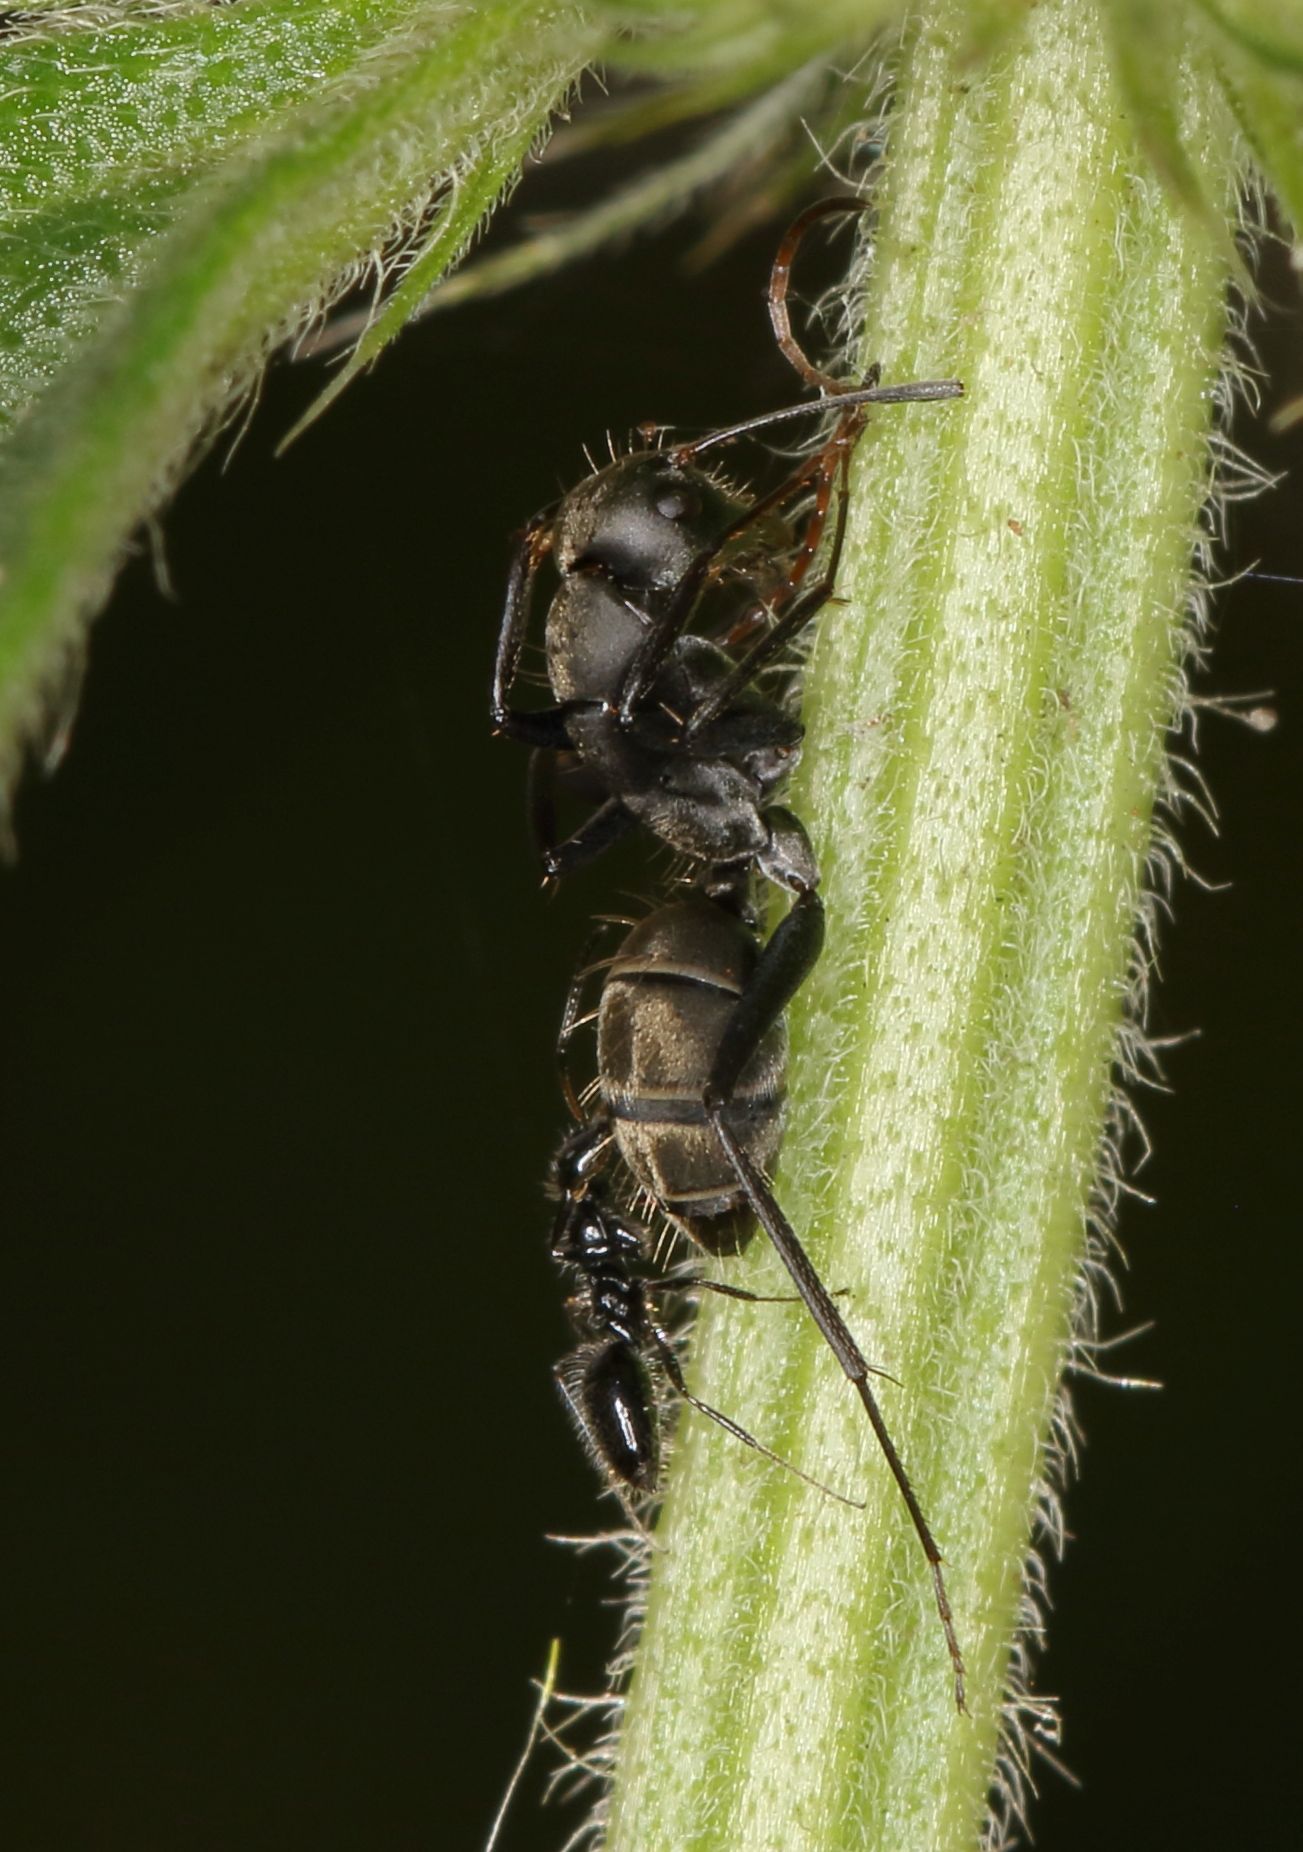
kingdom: Animalia
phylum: Arthropoda
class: Insecta
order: Hymenoptera
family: Formicidae
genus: Camponotus
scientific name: Camponotus cinctellus
